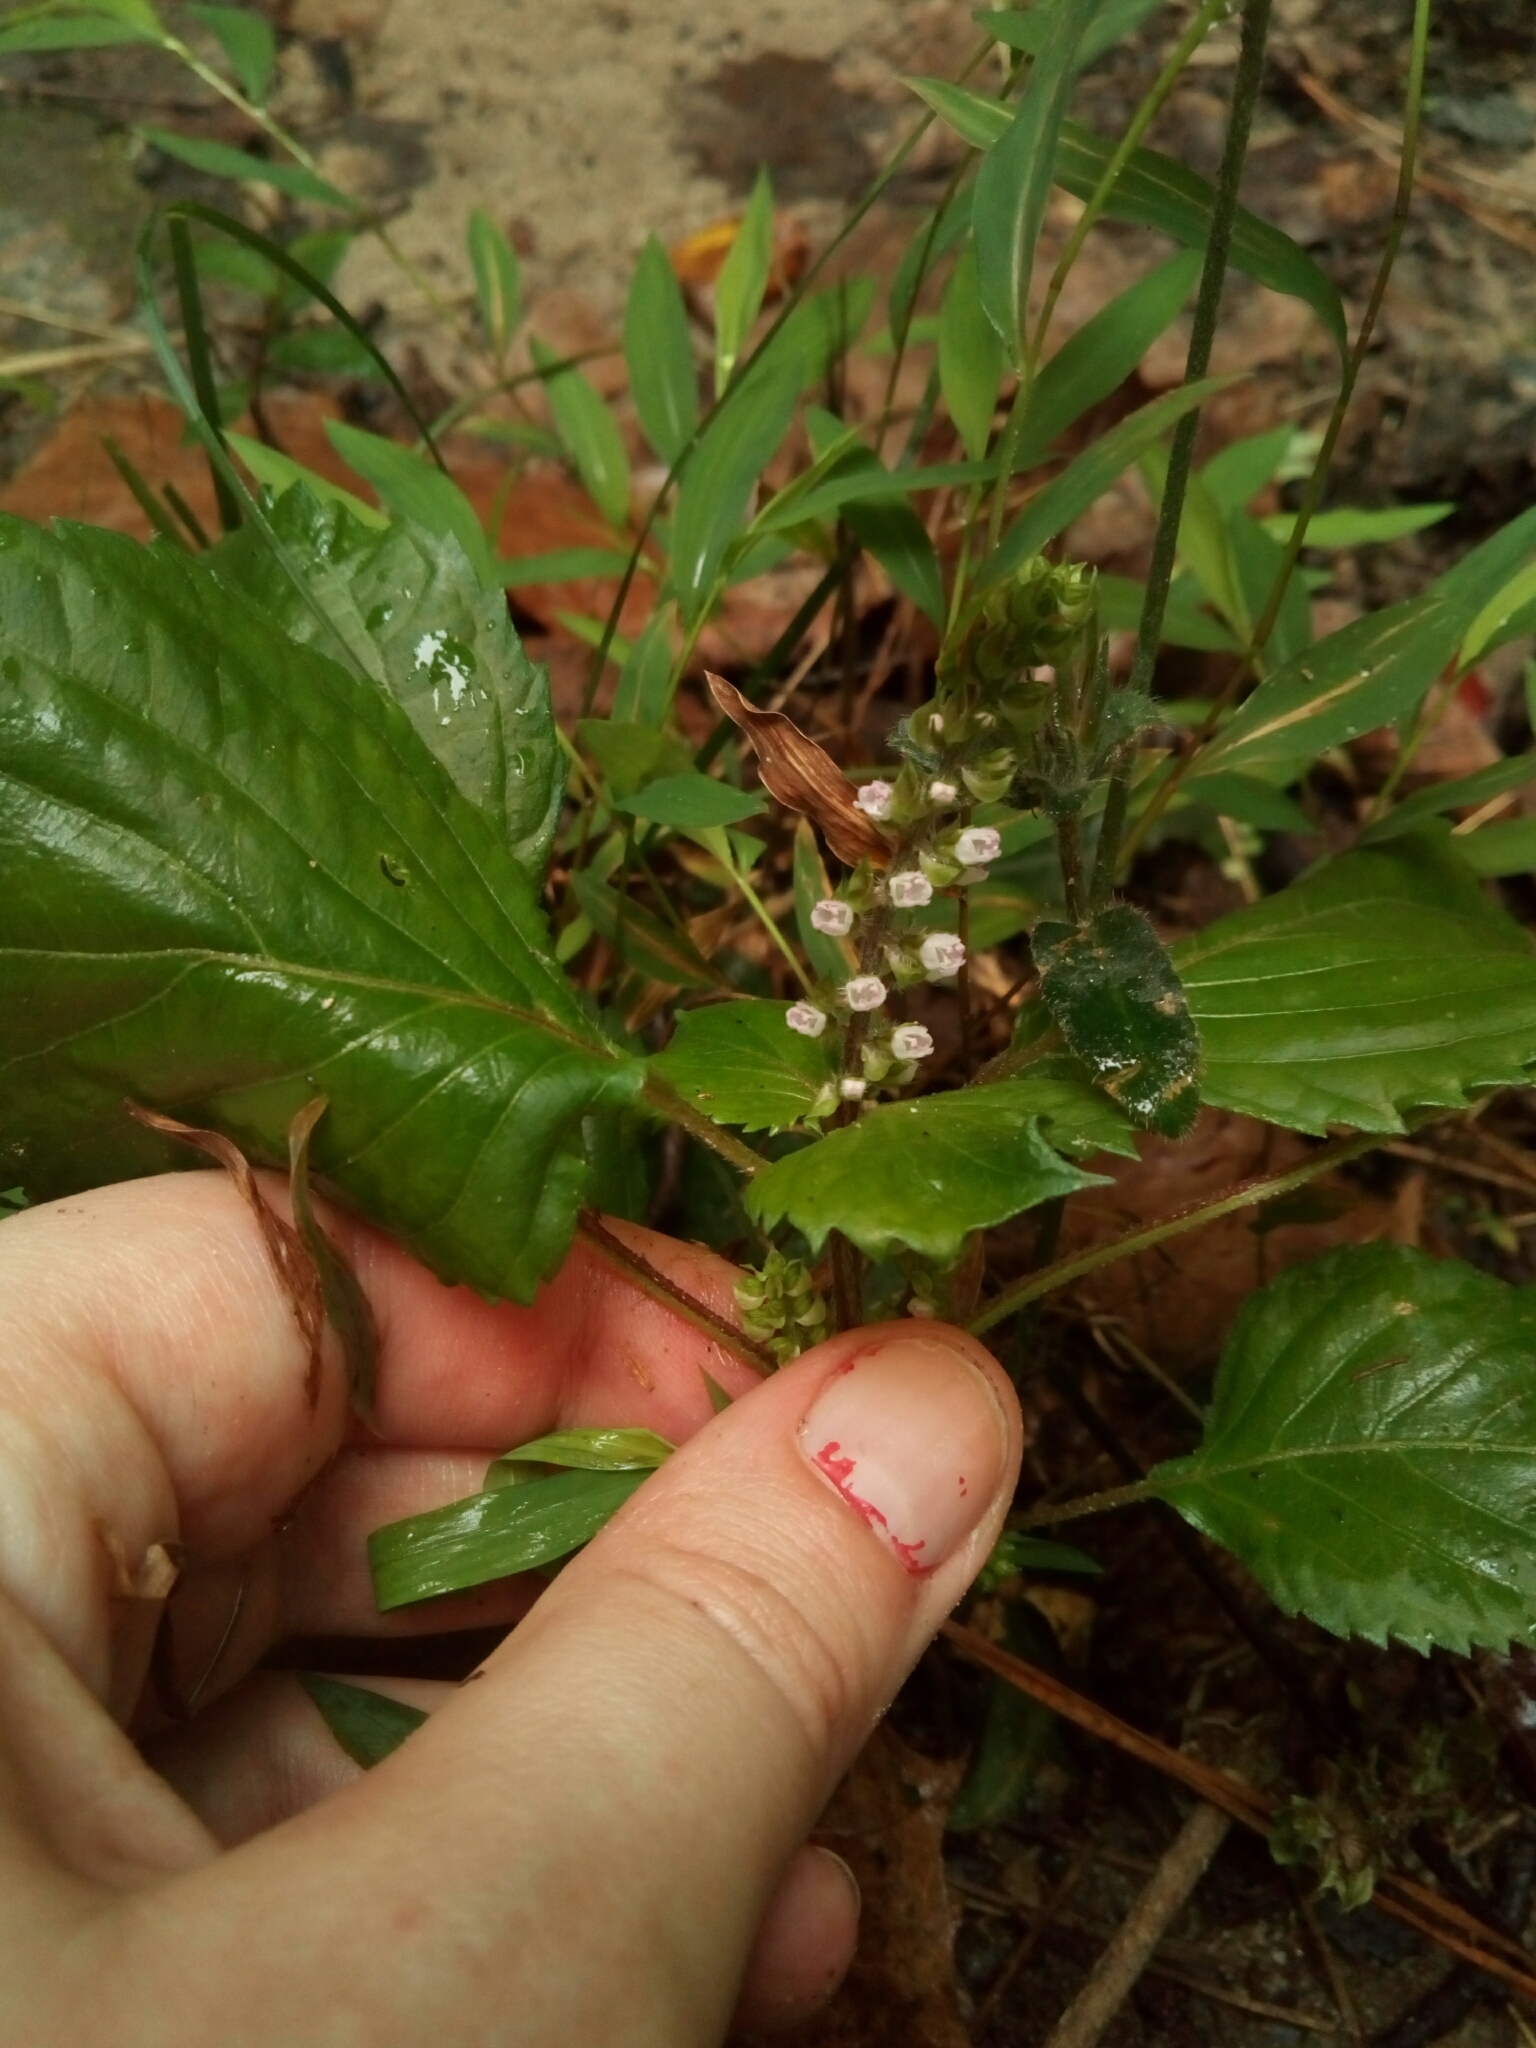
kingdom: Plantae
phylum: Tracheophyta
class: Magnoliopsida
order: Lamiales
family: Lamiaceae
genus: Perilla
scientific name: Perilla frutescens
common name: Perilla
